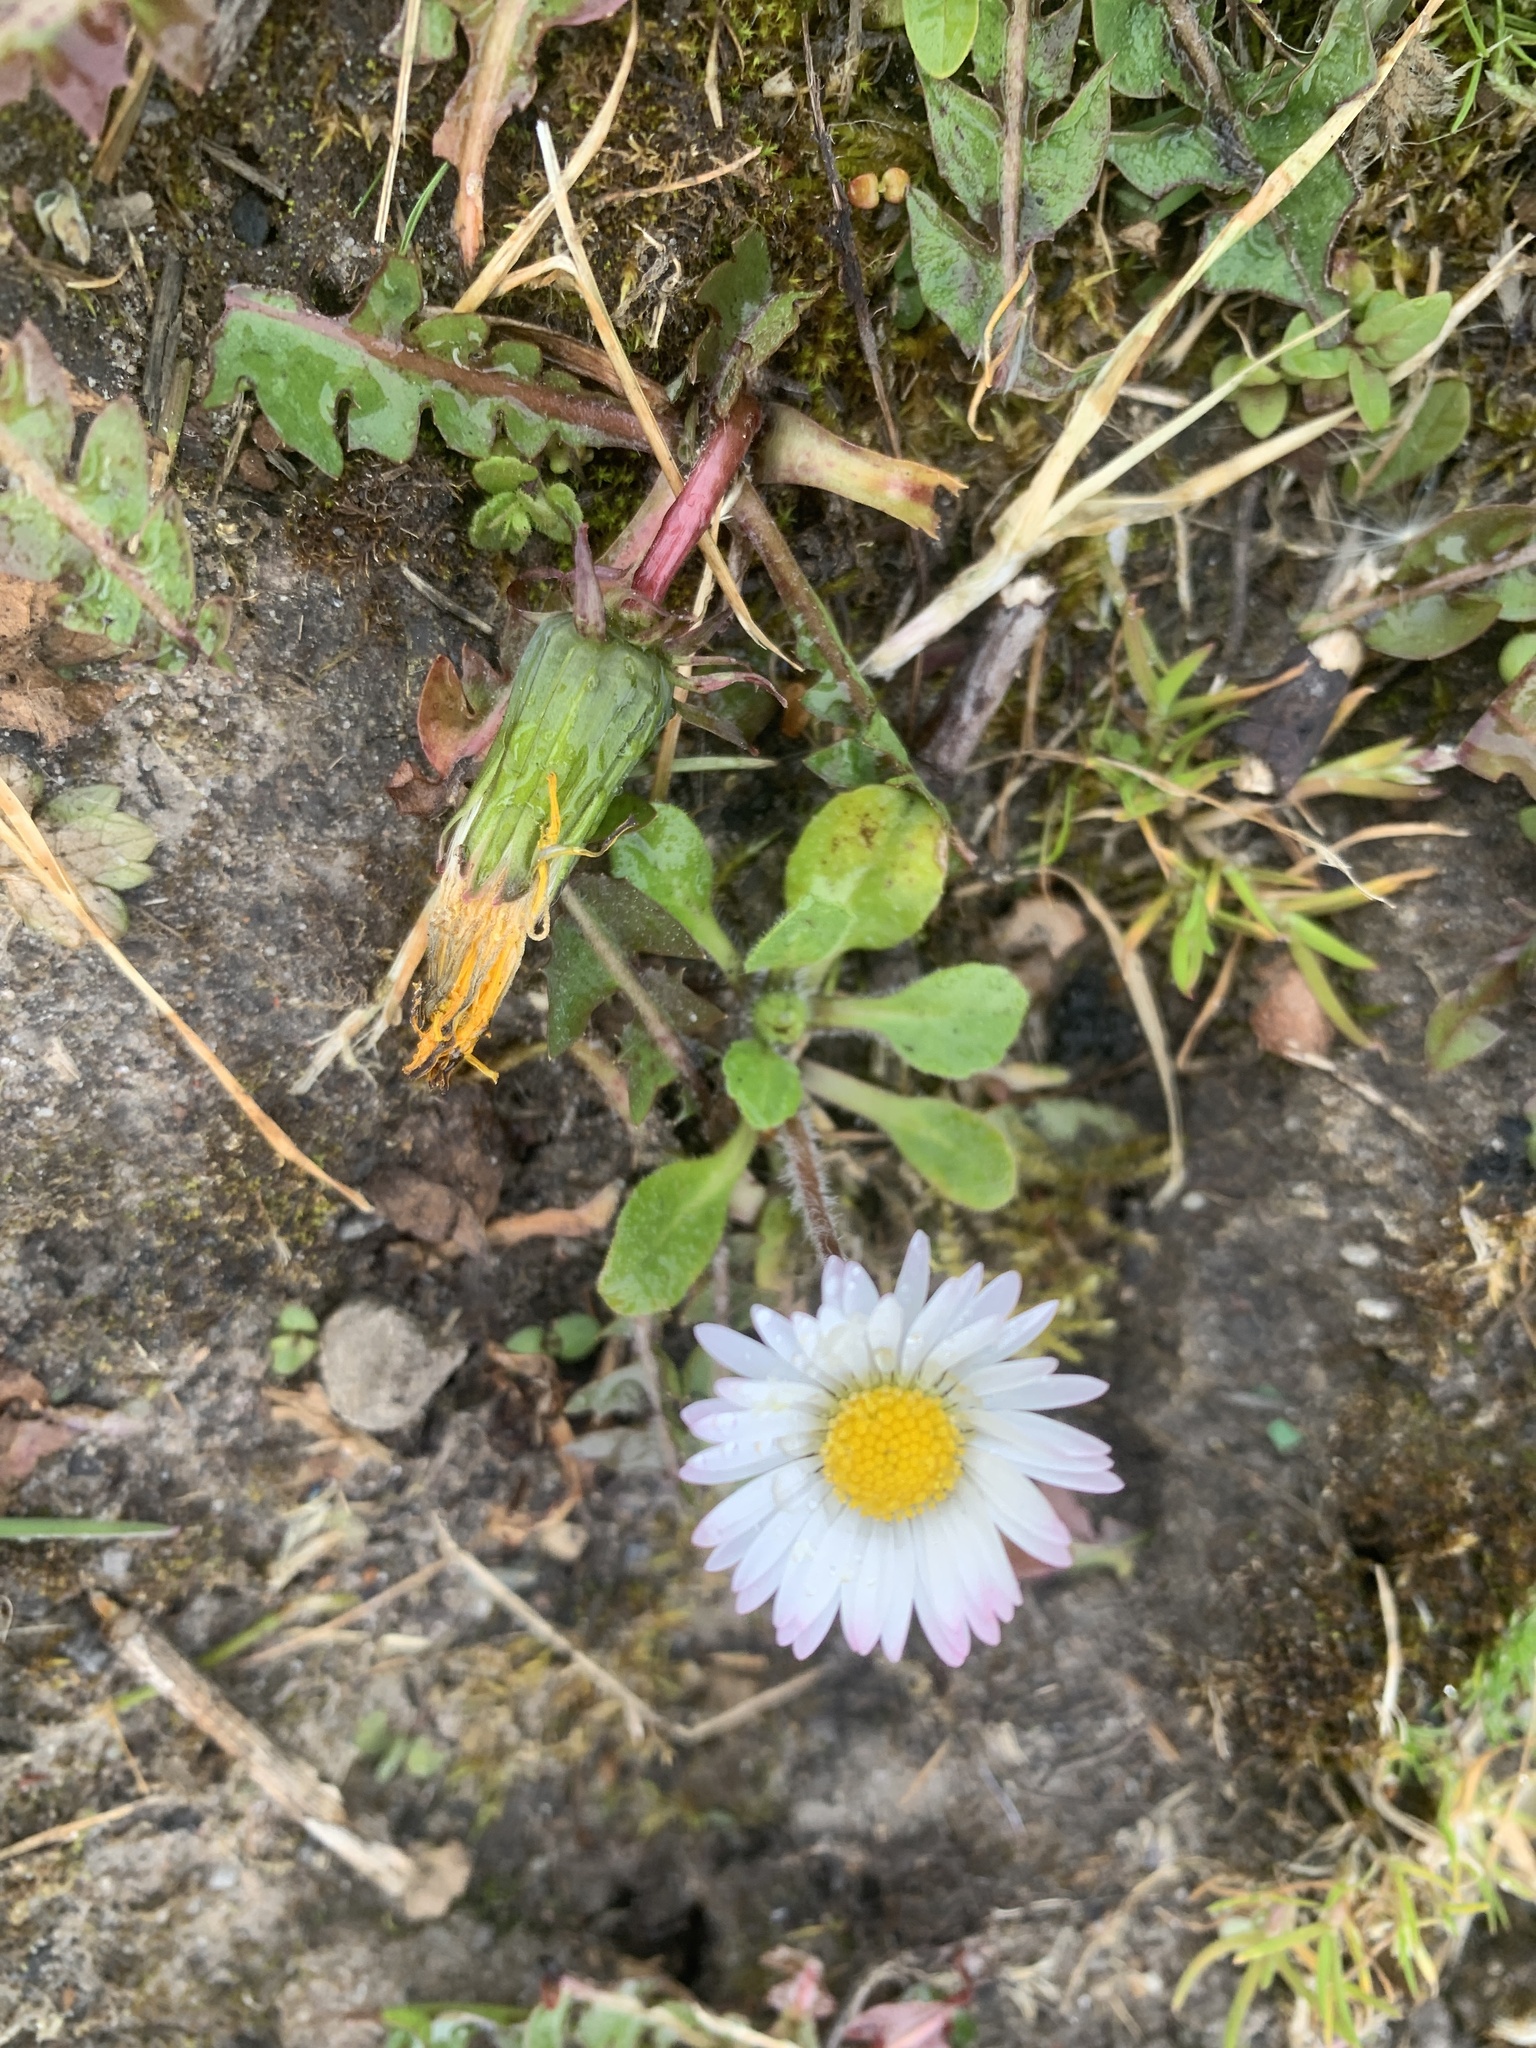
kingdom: Plantae
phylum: Tracheophyta
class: Magnoliopsida
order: Asterales
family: Asteraceae
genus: Bellis
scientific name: Bellis perennis
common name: Lawndaisy
